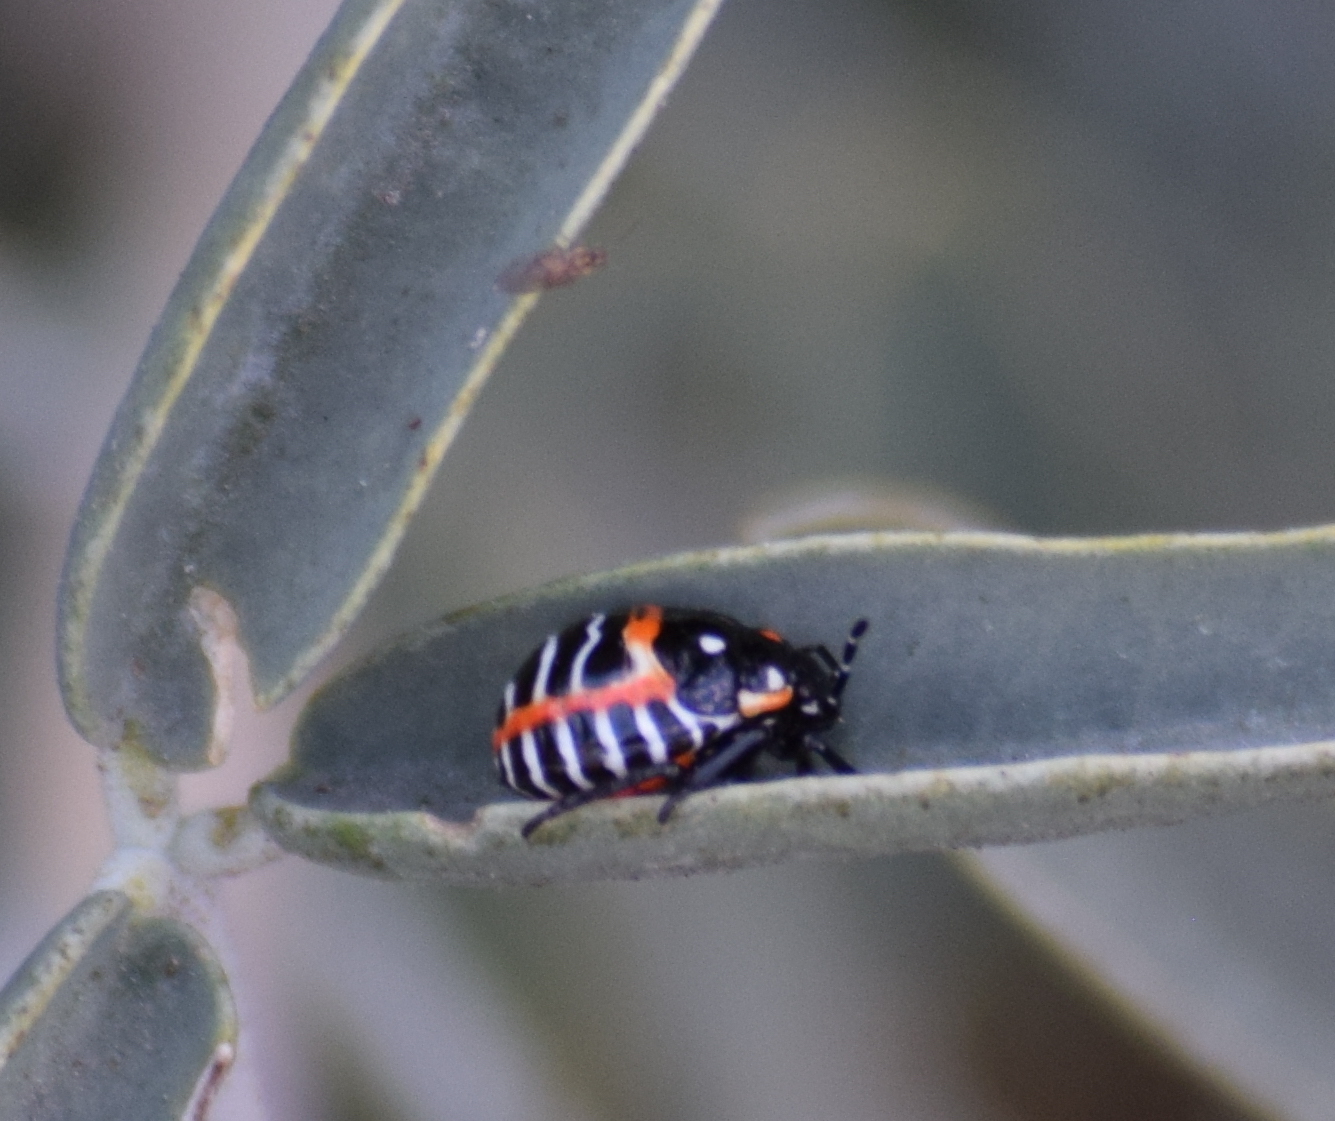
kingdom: Animalia
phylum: Arthropoda
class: Insecta
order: Hemiptera
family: Pentatomidae
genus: Murgantia
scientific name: Murgantia histrionica
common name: Harlequin bug
